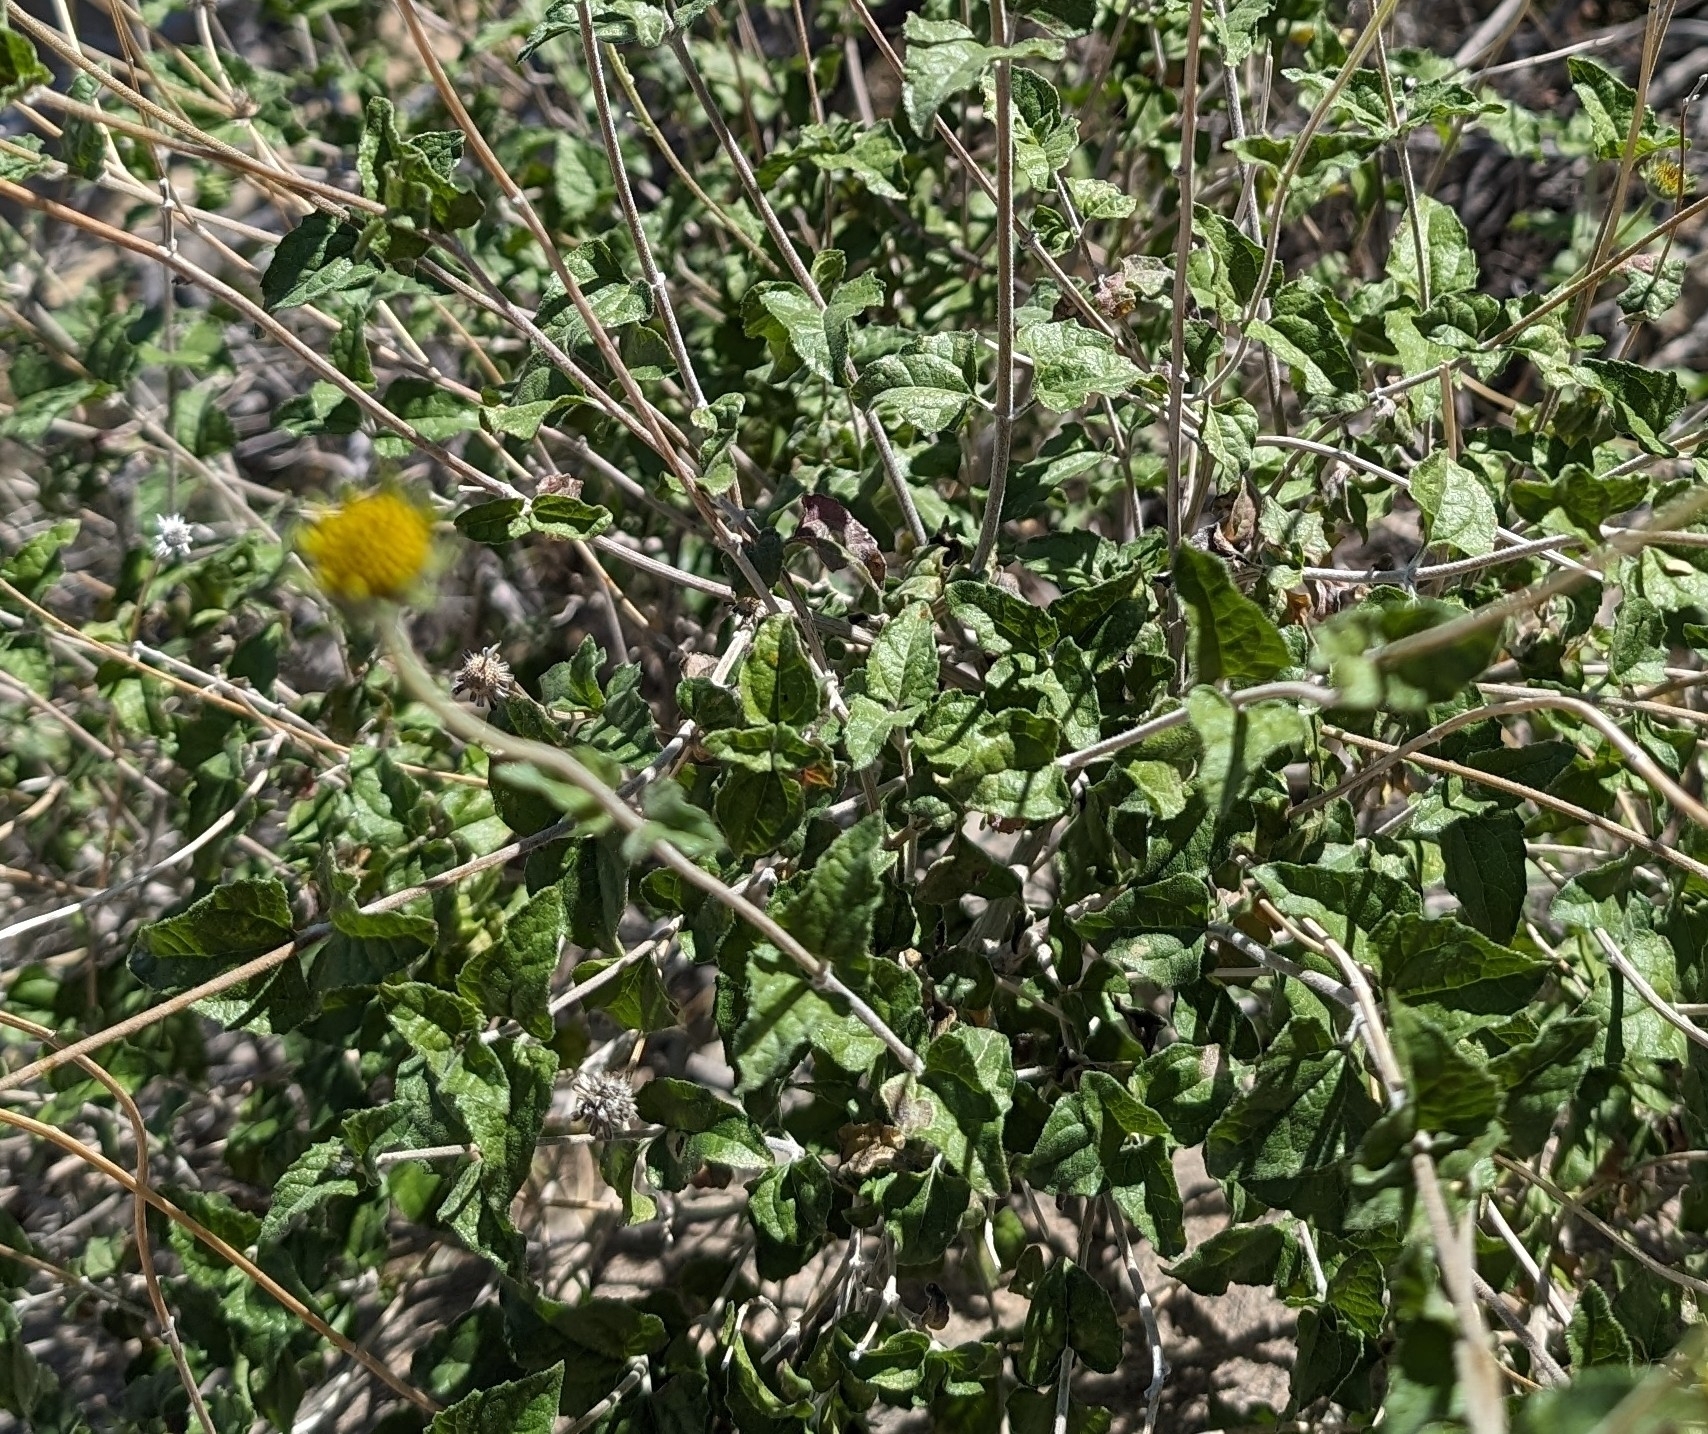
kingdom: Plantae
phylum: Tracheophyta
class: Magnoliopsida
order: Asterales
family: Asteraceae
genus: Bahiopsis
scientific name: Bahiopsis parishii
